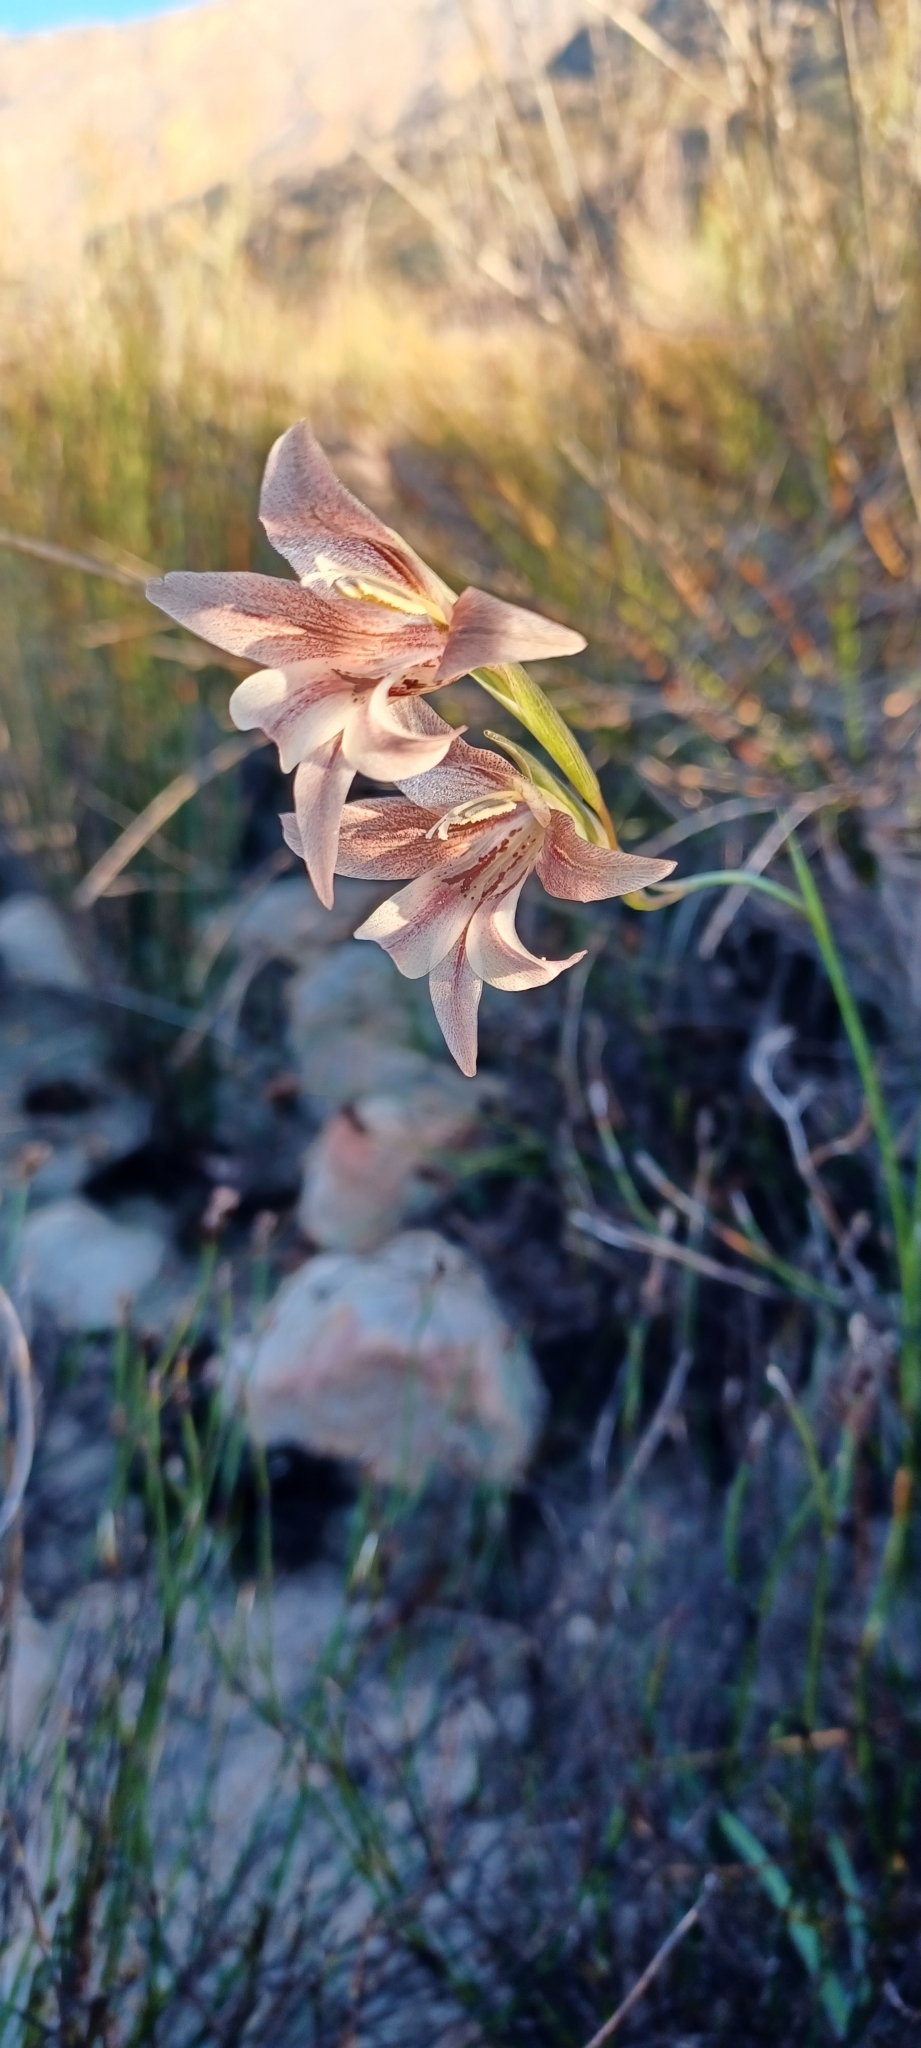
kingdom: Plantae
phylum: Tracheophyta
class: Liliopsida
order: Asparagales
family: Iridaceae
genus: Gladiolus
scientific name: Gladiolus hyalinus
